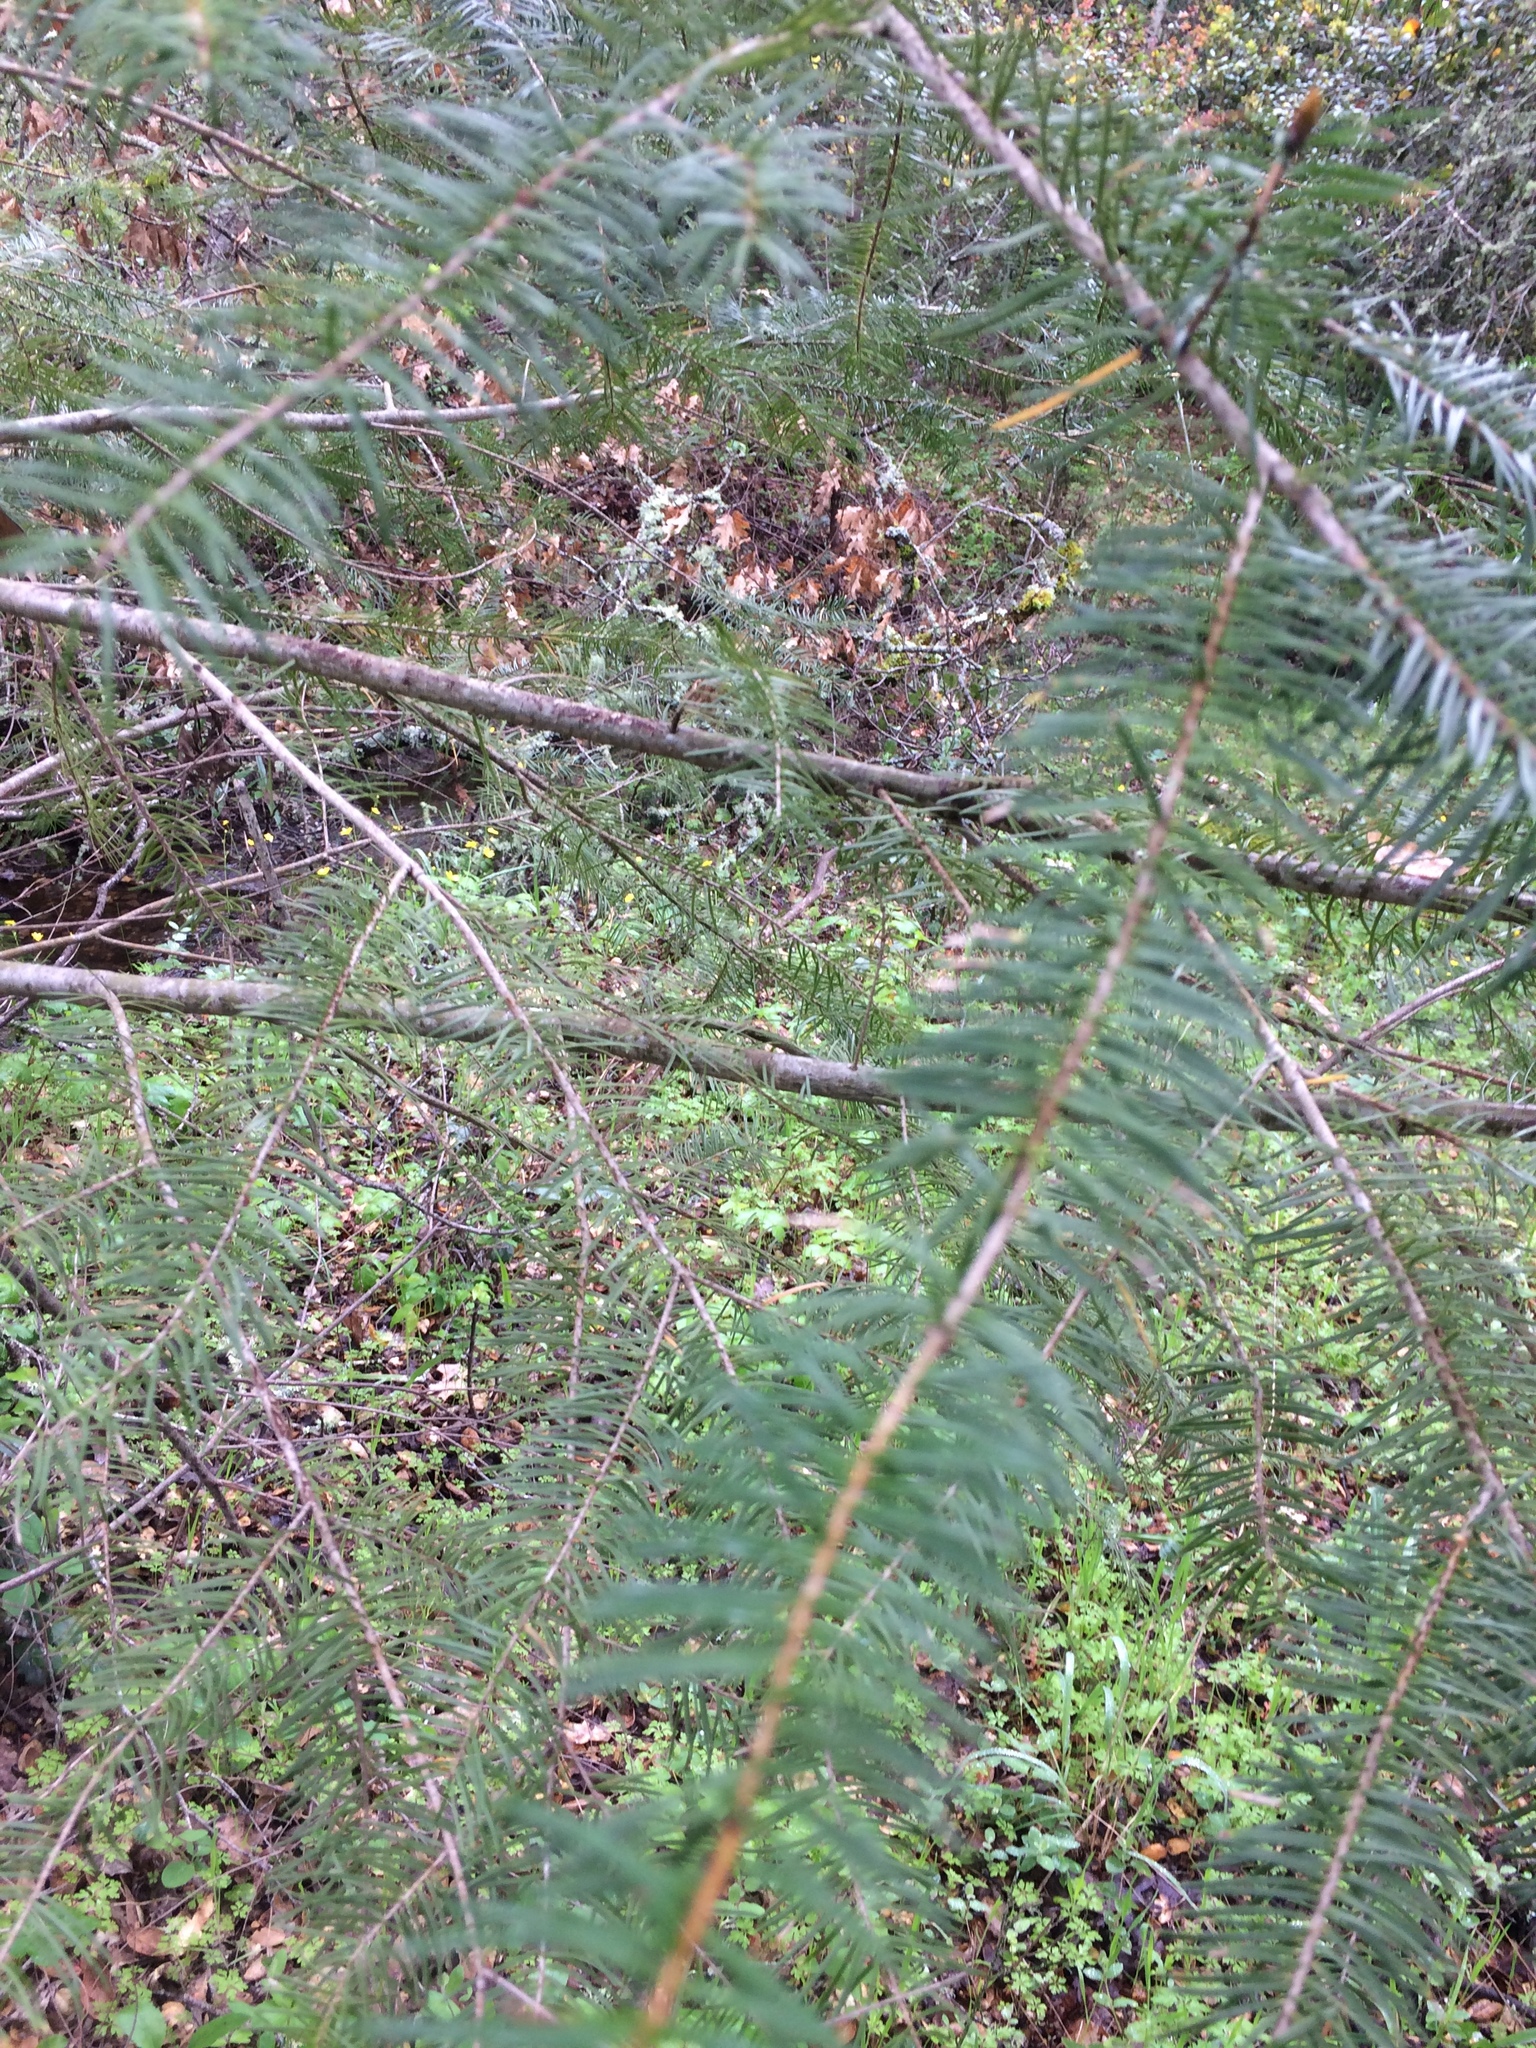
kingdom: Plantae
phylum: Tracheophyta
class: Pinopsida
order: Pinales
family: Pinaceae
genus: Pseudotsuga
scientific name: Pseudotsuga menziesii
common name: Douglas fir
